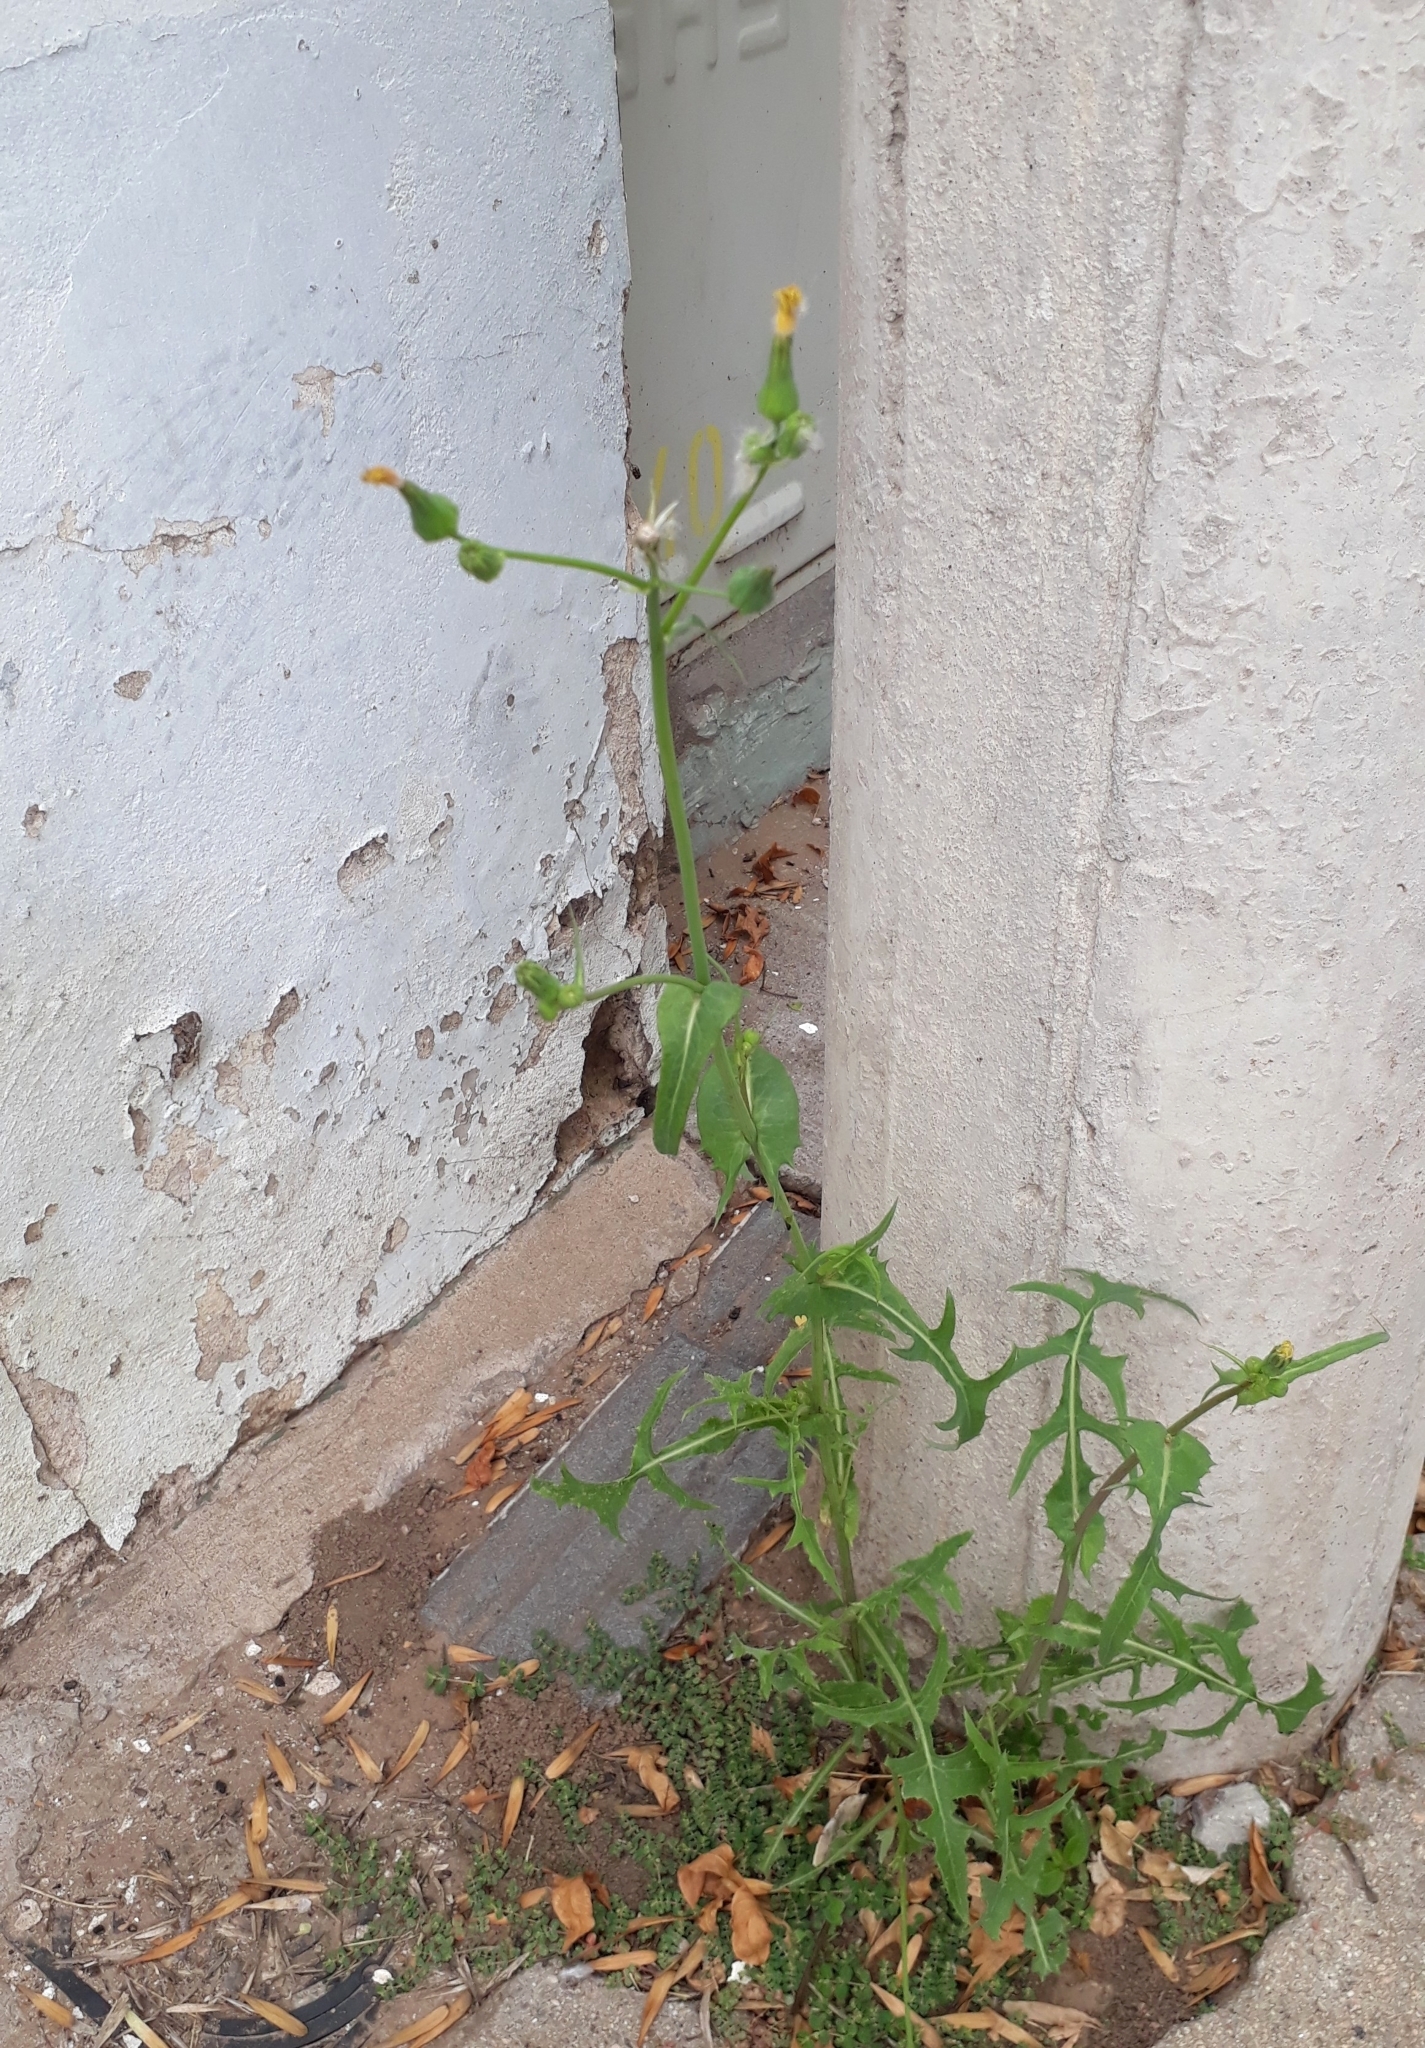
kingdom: Plantae
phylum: Tracheophyta
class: Magnoliopsida
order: Asterales
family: Asteraceae
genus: Sonchus
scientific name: Sonchus oleraceus
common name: Common sowthistle
